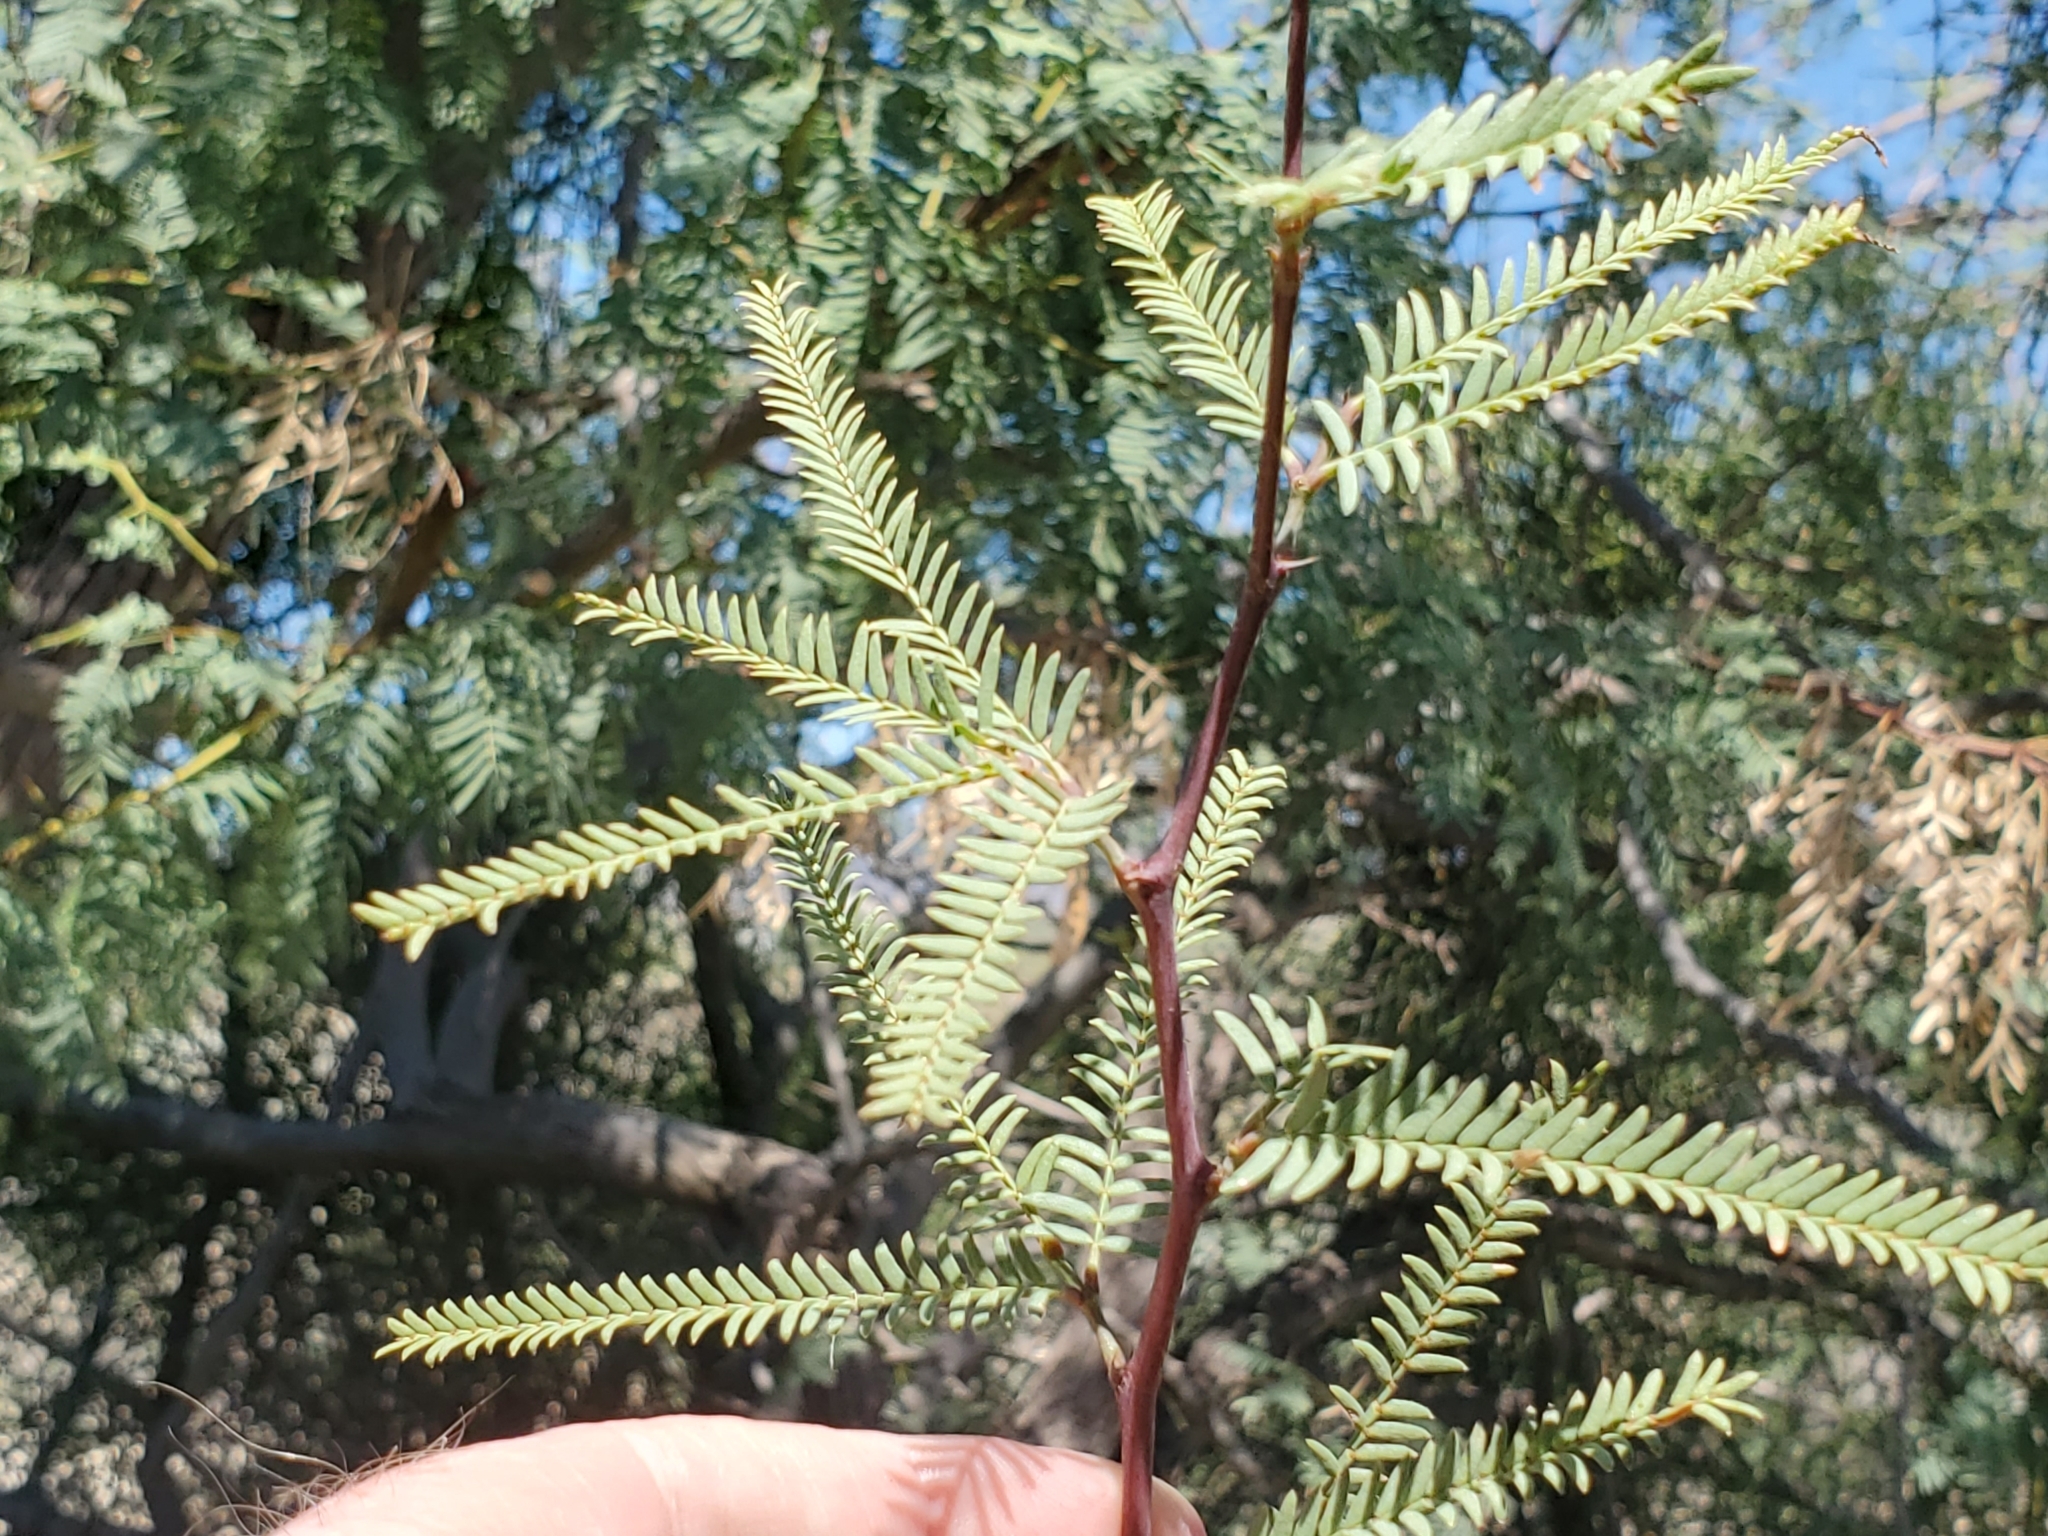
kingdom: Plantae
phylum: Tracheophyta
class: Magnoliopsida
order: Fabales
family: Fabaceae
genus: Prosopis
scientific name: Prosopis pubescens
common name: Screw-bean
